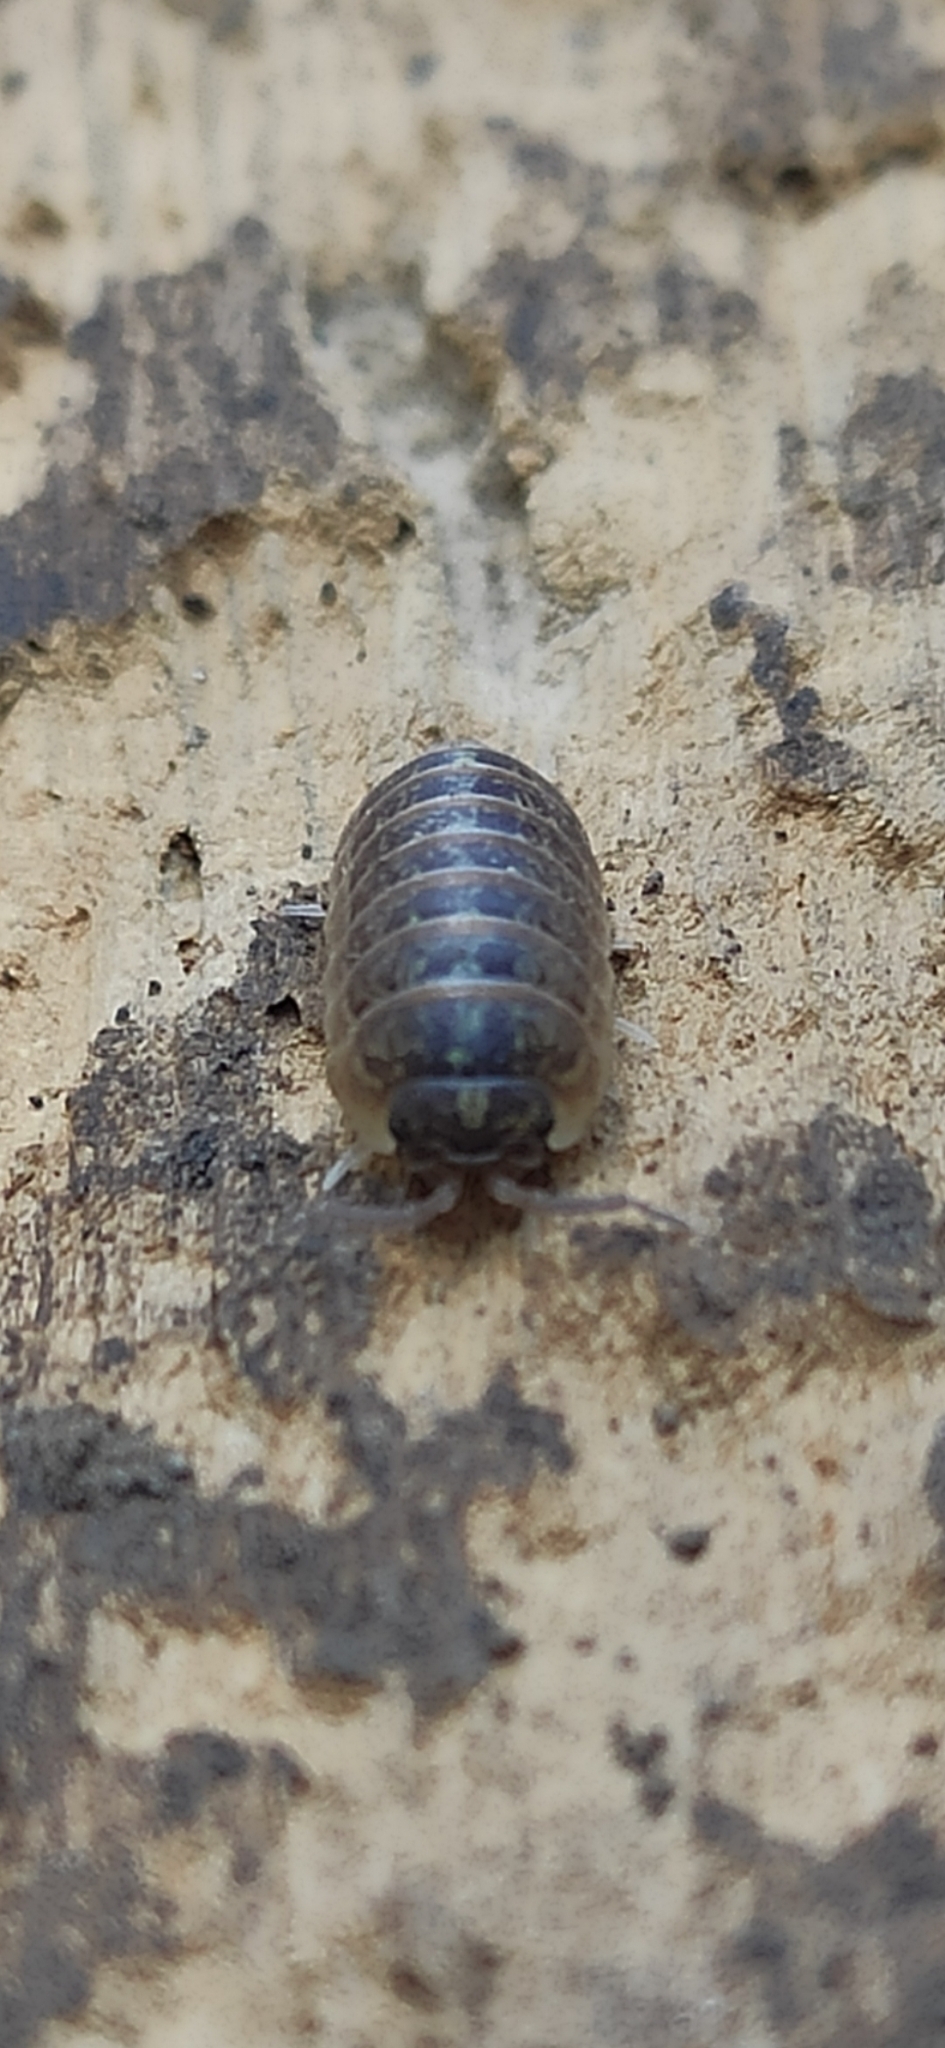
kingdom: Animalia
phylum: Arthropoda
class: Malacostraca
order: Isopoda
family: Armadillidiidae
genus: Armadillidium
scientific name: Armadillidium versicolor
